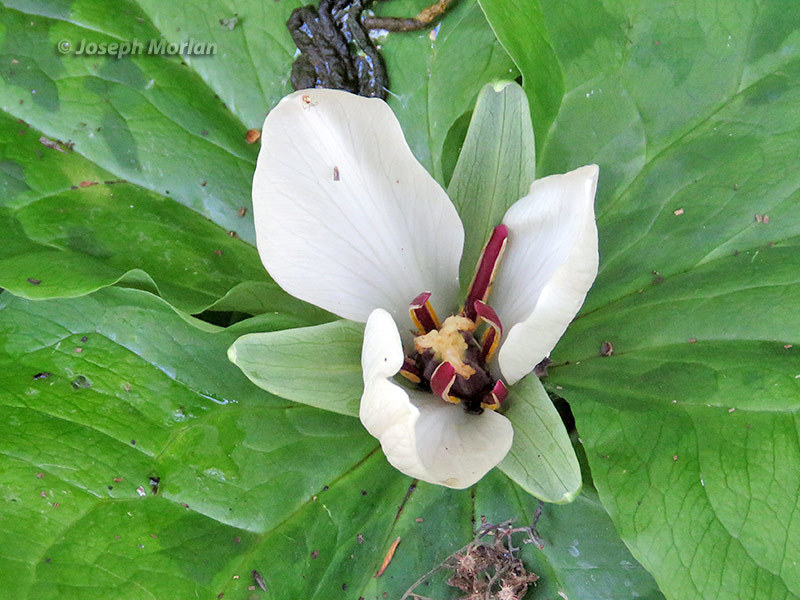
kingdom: Plantae
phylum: Tracheophyta
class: Liliopsida
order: Liliales
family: Melanthiaceae
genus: Trillium
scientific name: Trillium chloropetalum
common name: Giant trillium
